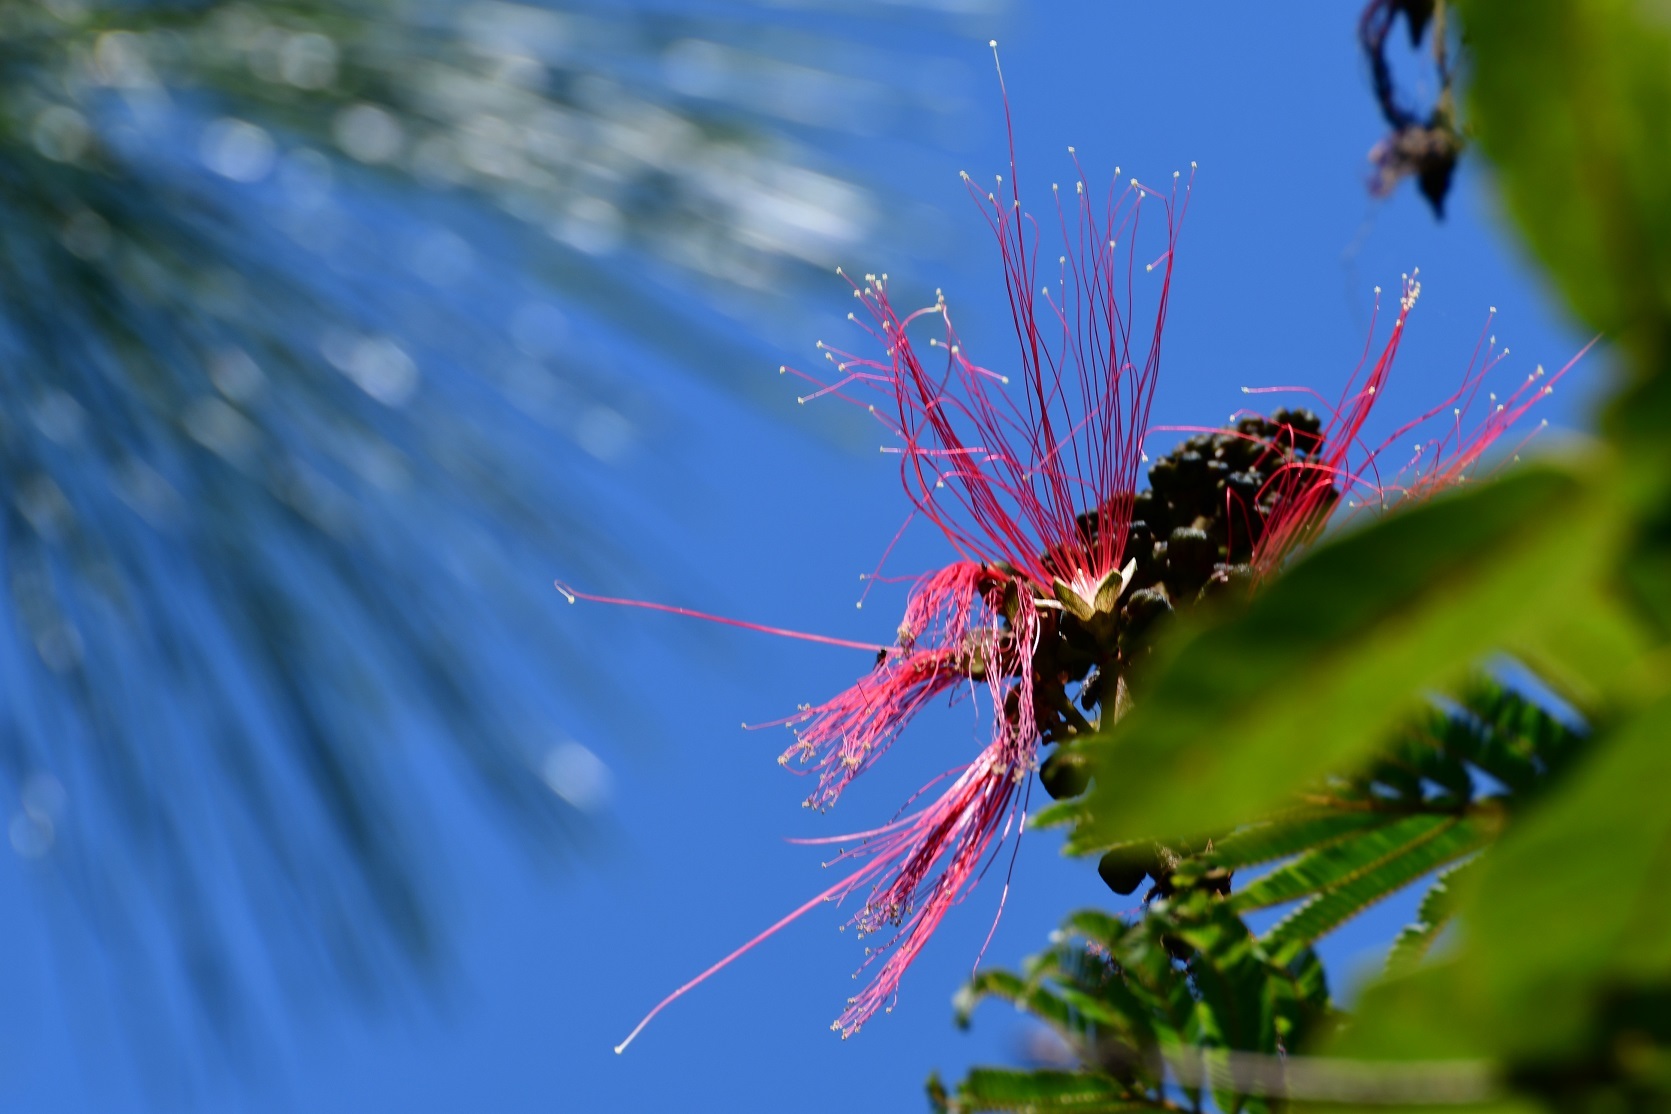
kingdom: Plantae
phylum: Tracheophyta
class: Magnoliopsida
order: Fabales
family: Fabaceae
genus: Calliandra
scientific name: Calliandra houstoniana
